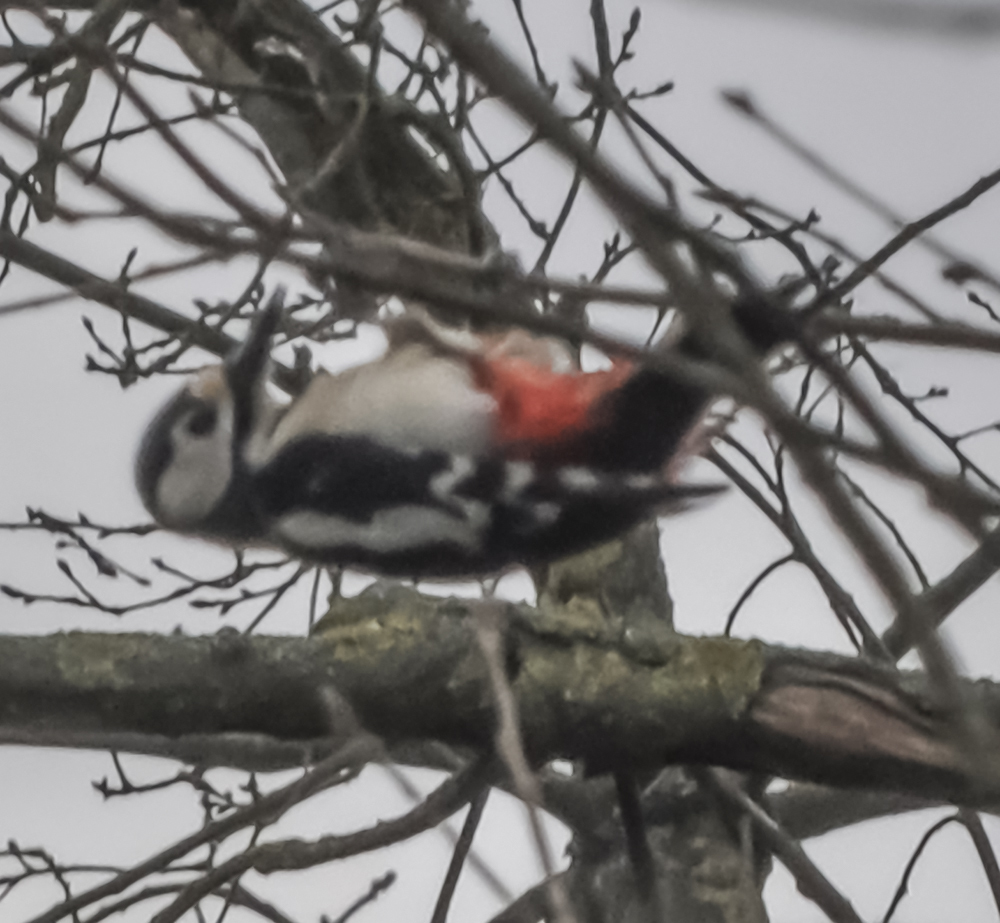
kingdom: Animalia
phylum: Chordata
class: Aves
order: Piciformes
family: Picidae
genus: Dendrocopos
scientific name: Dendrocopos major
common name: Great spotted woodpecker
